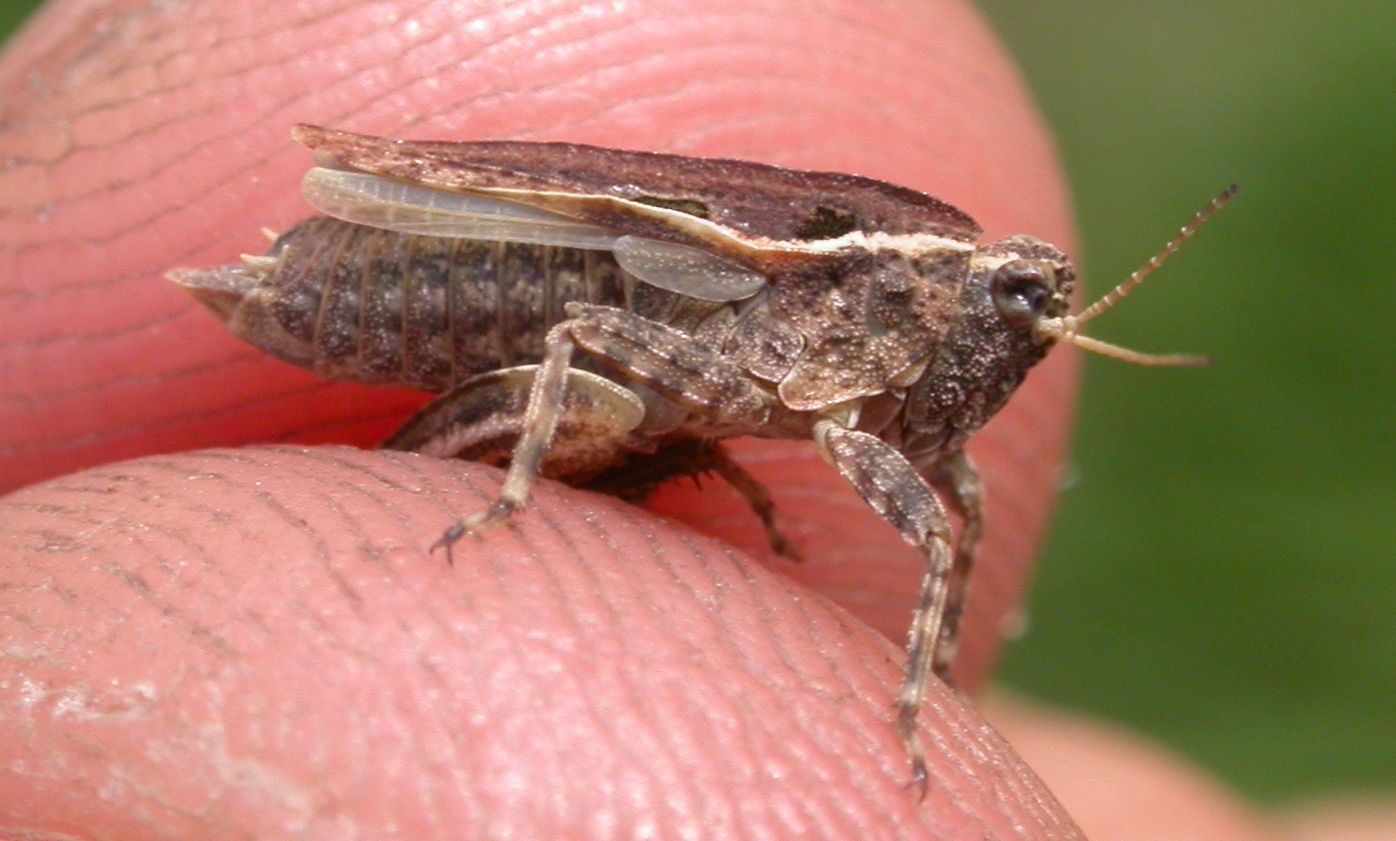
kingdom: Animalia
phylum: Arthropoda
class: Insecta
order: Orthoptera
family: Tetrigidae
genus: Tetrix
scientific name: Tetrix tenuicornis
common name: Long-horned groundhopper
